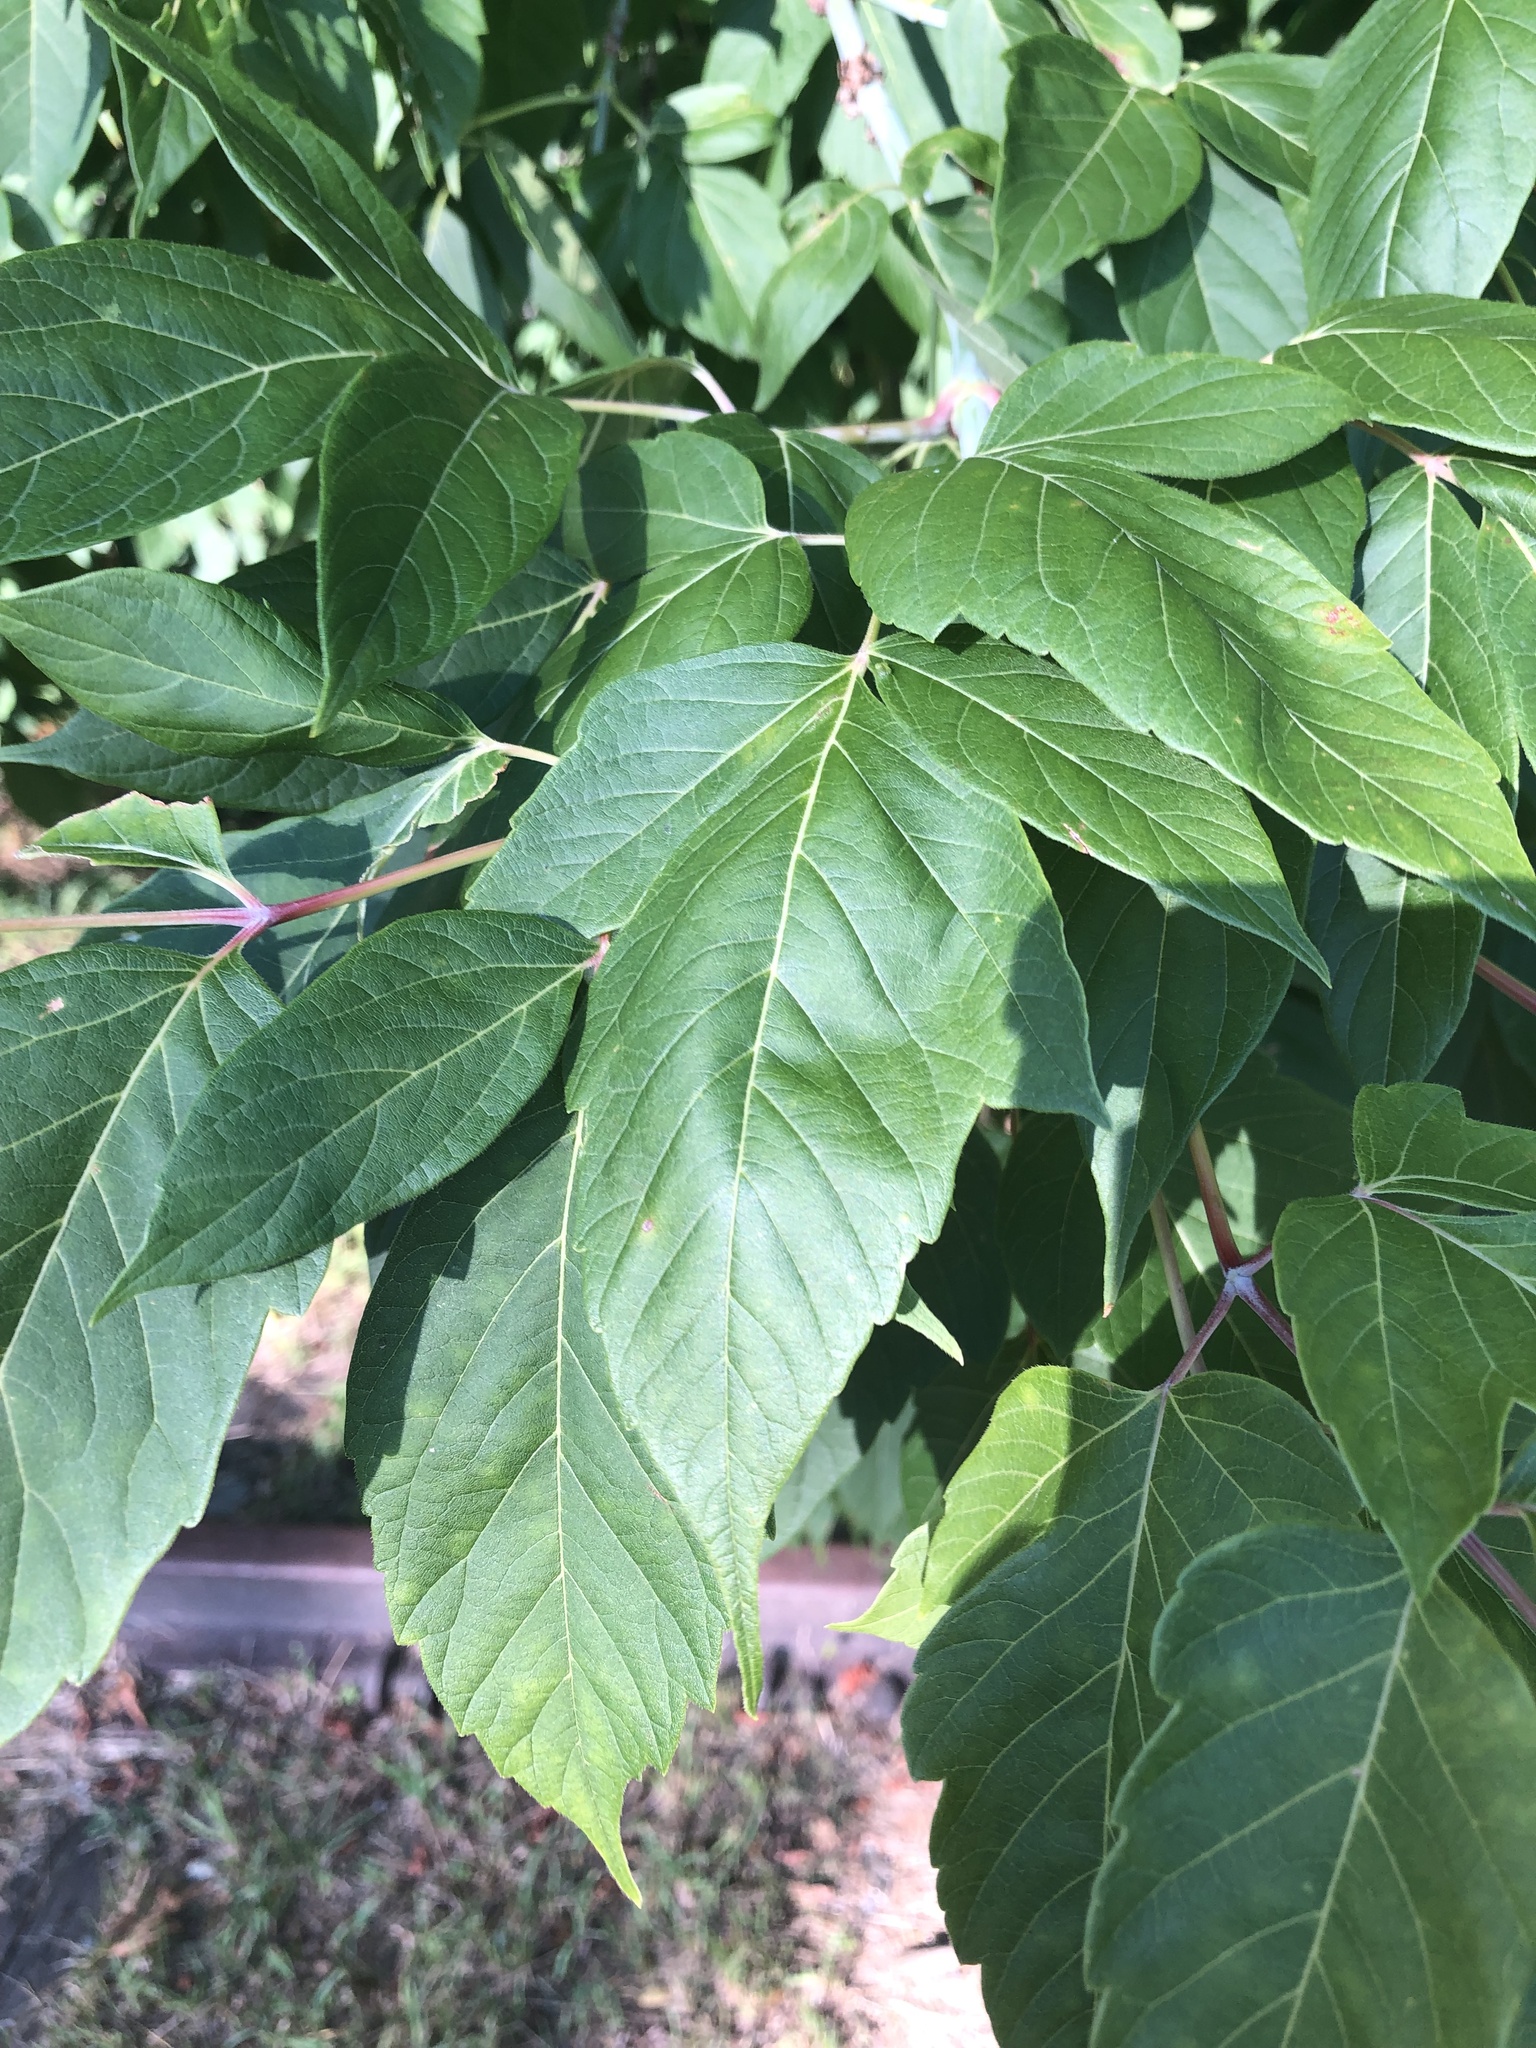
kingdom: Plantae
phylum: Tracheophyta
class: Magnoliopsida
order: Sapindales
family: Sapindaceae
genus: Acer
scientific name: Acer negundo
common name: Ashleaf maple
